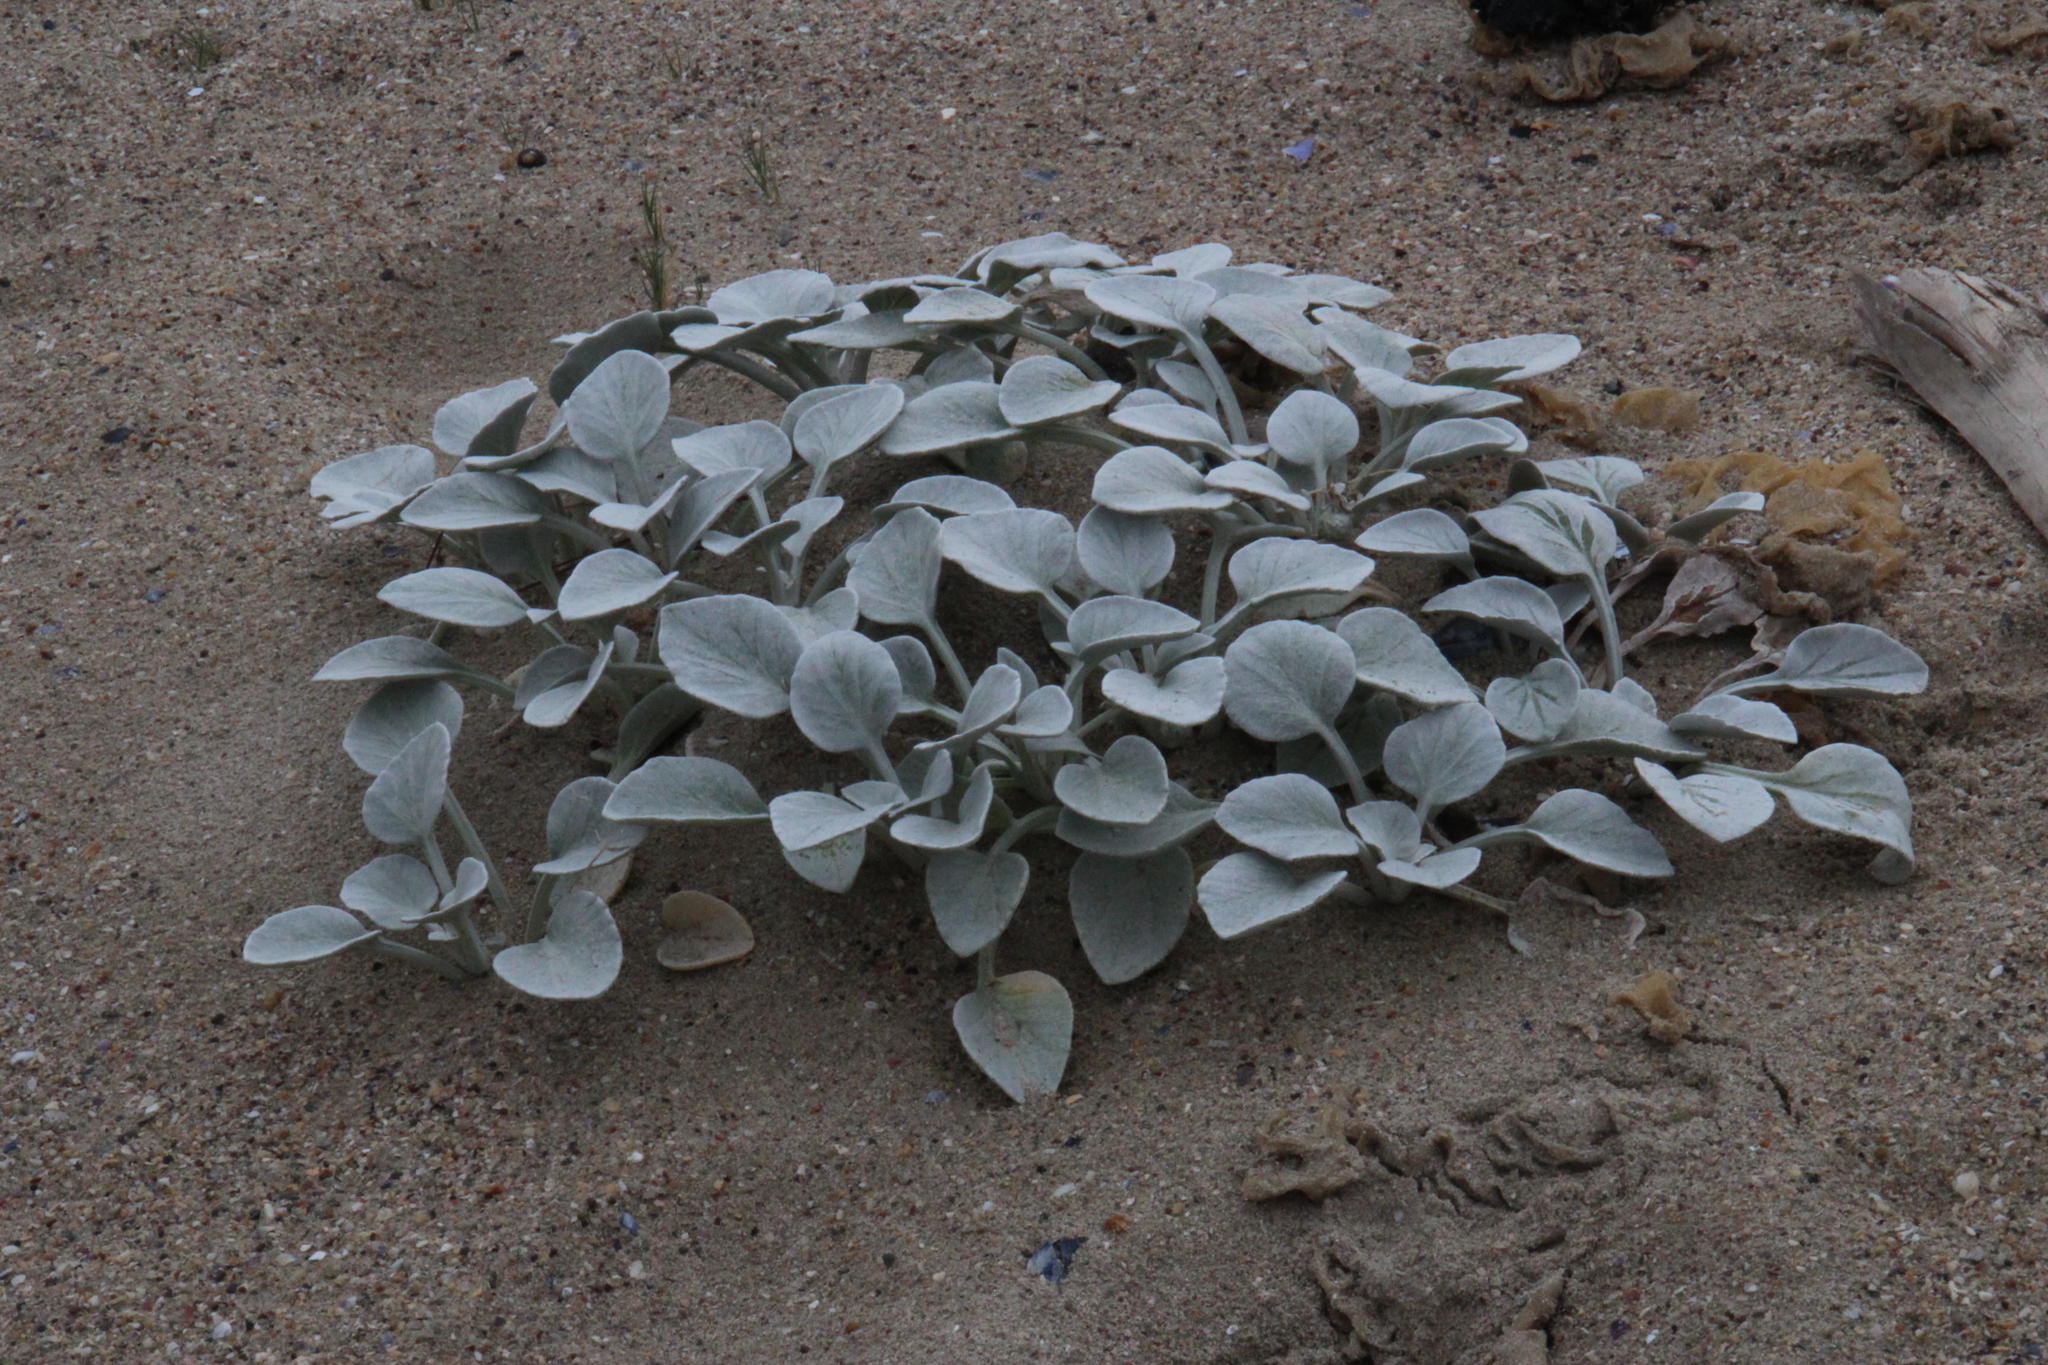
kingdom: Plantae
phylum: Tracheophyta
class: Magnoliopsida
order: Asterales
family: Asteraceae
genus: Arctotheca
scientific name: Arctotheca populifolia
